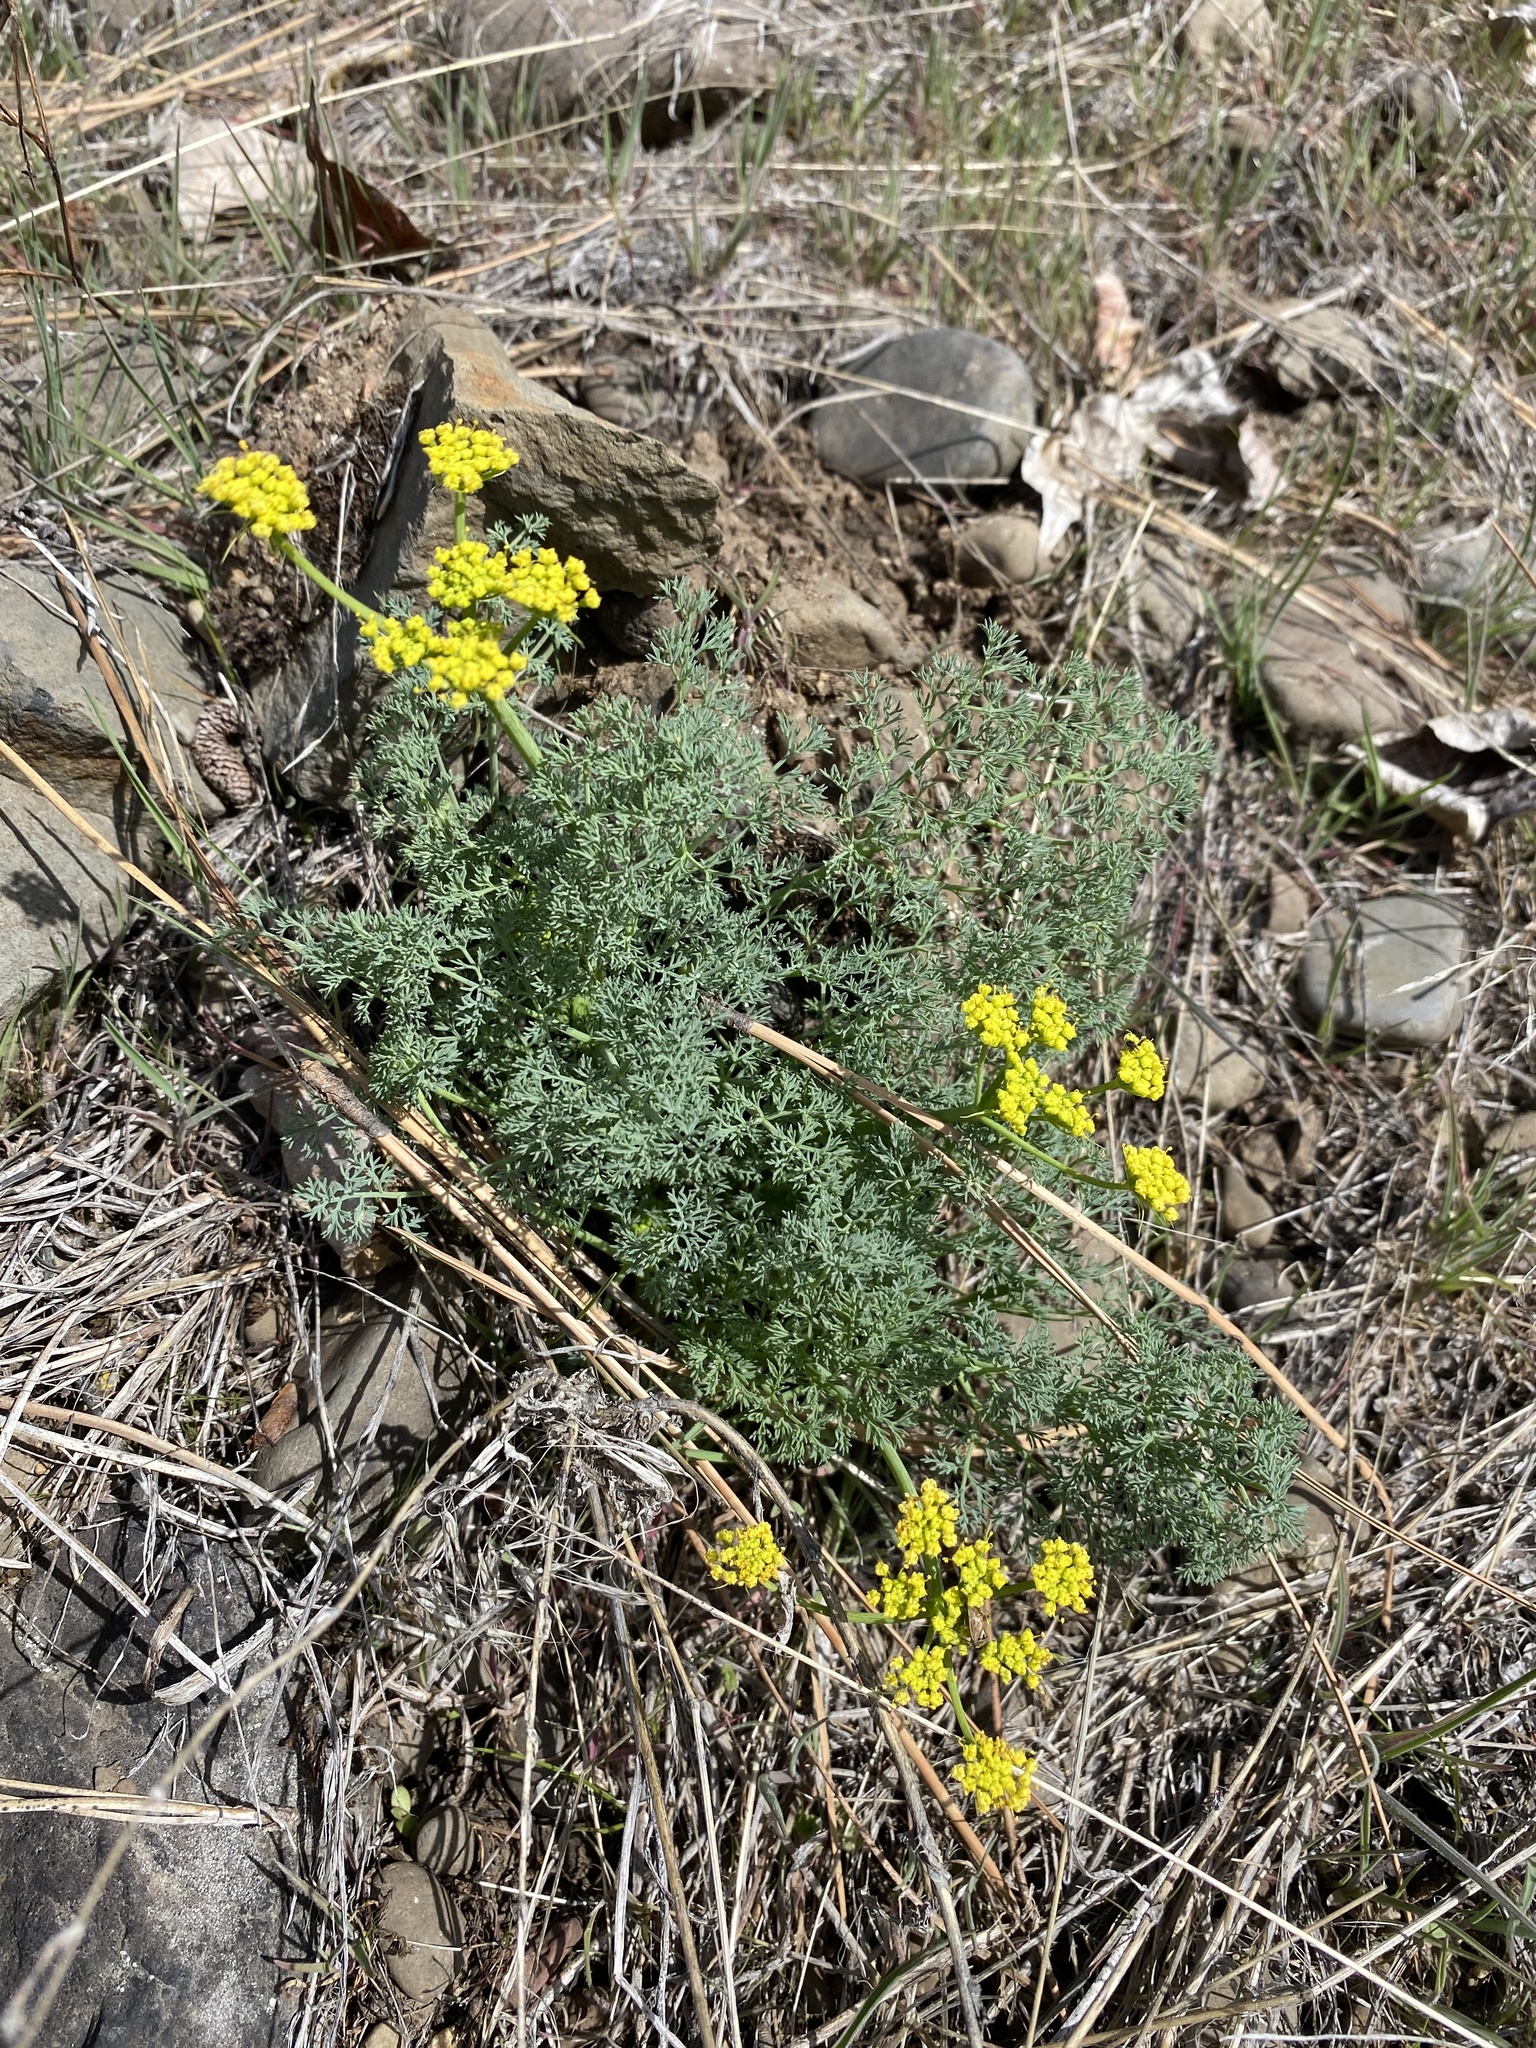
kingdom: Plantae
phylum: Tracheophyta
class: Magnoliopsida
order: Apiales
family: Apiaceae
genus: Lomatium
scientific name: Lomatium papilioniferum
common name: Butterfly lomatium
